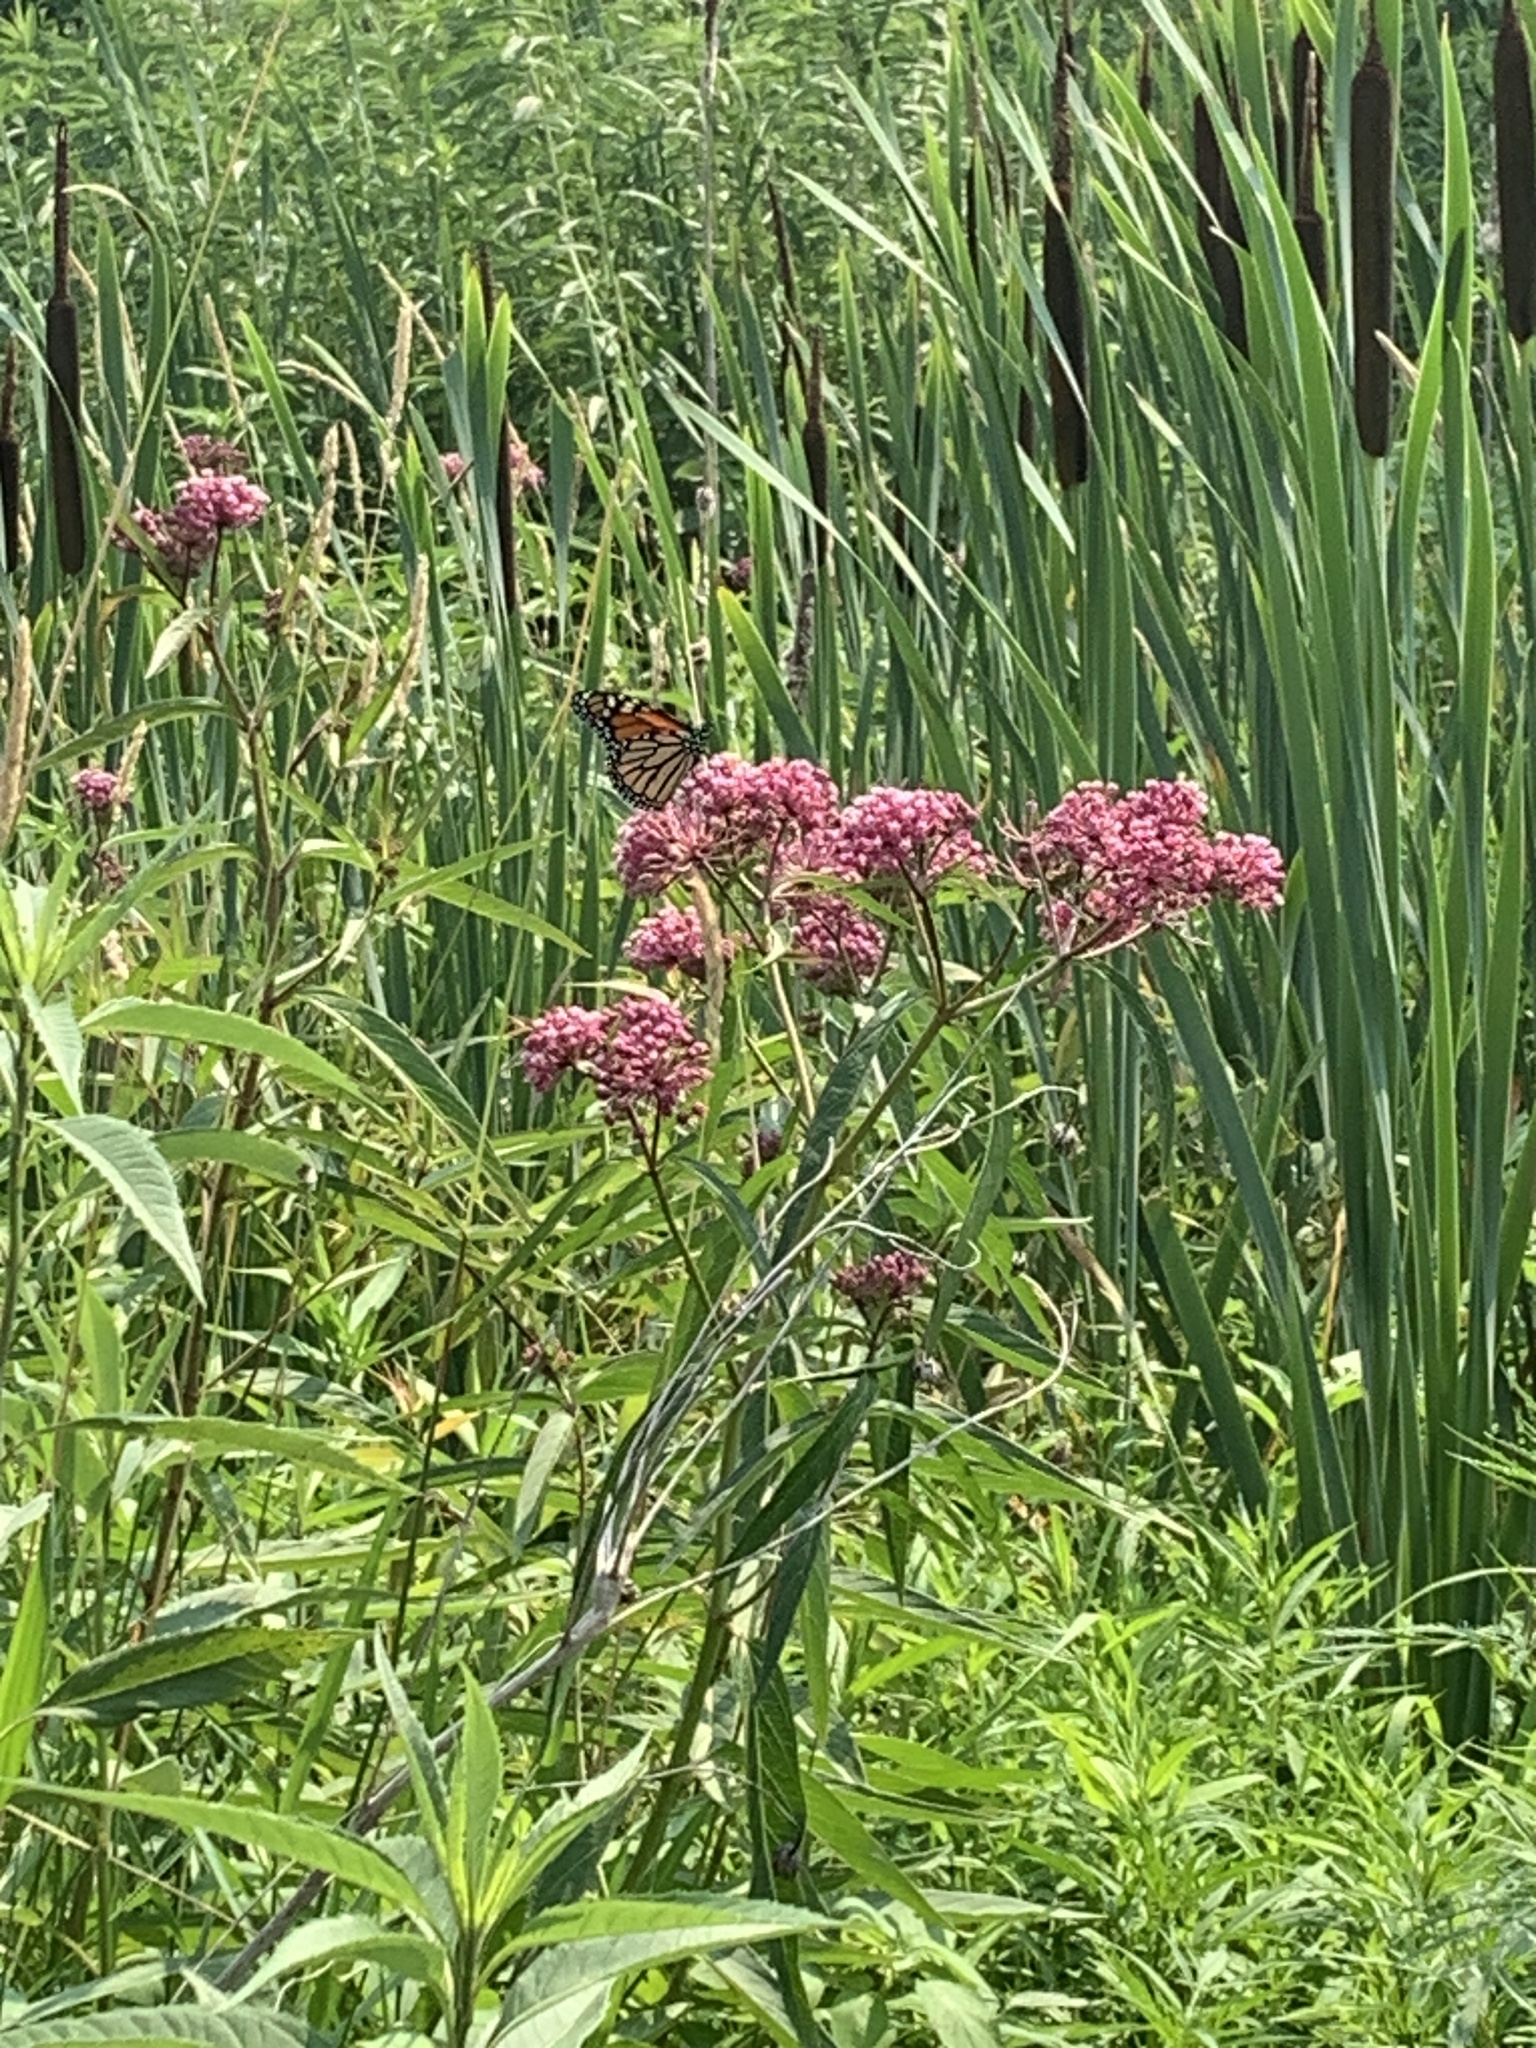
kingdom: Animalia
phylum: Arthropoda
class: Insecta
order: Lepidoptera
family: Nymphalidae
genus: Danaus
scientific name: Danaus plexippus
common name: Monarch
